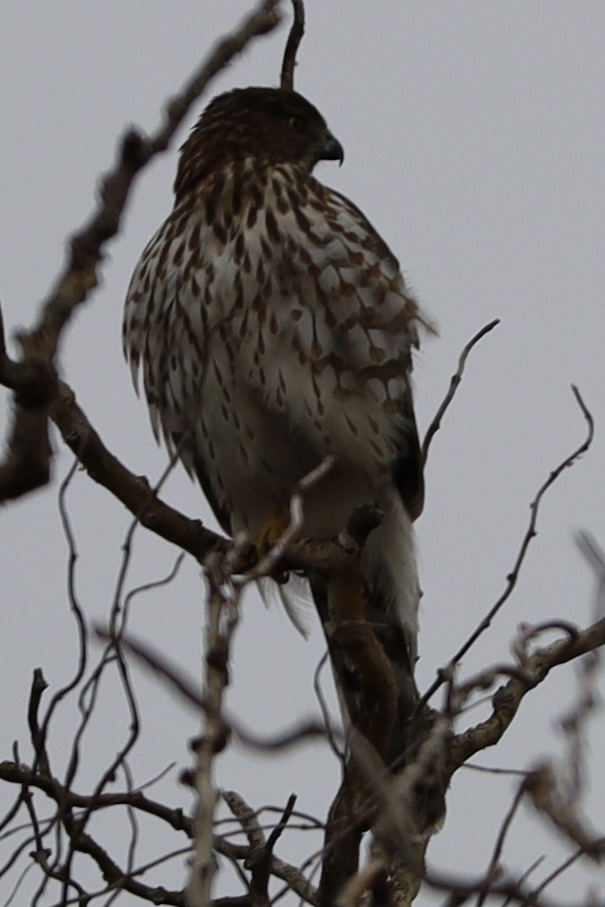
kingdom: Animalia
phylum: Chordata
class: Aves
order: Accipitriformes
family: Accipitridae
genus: Accipiter
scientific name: Accipiter cooperii
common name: Cooper's hawk
